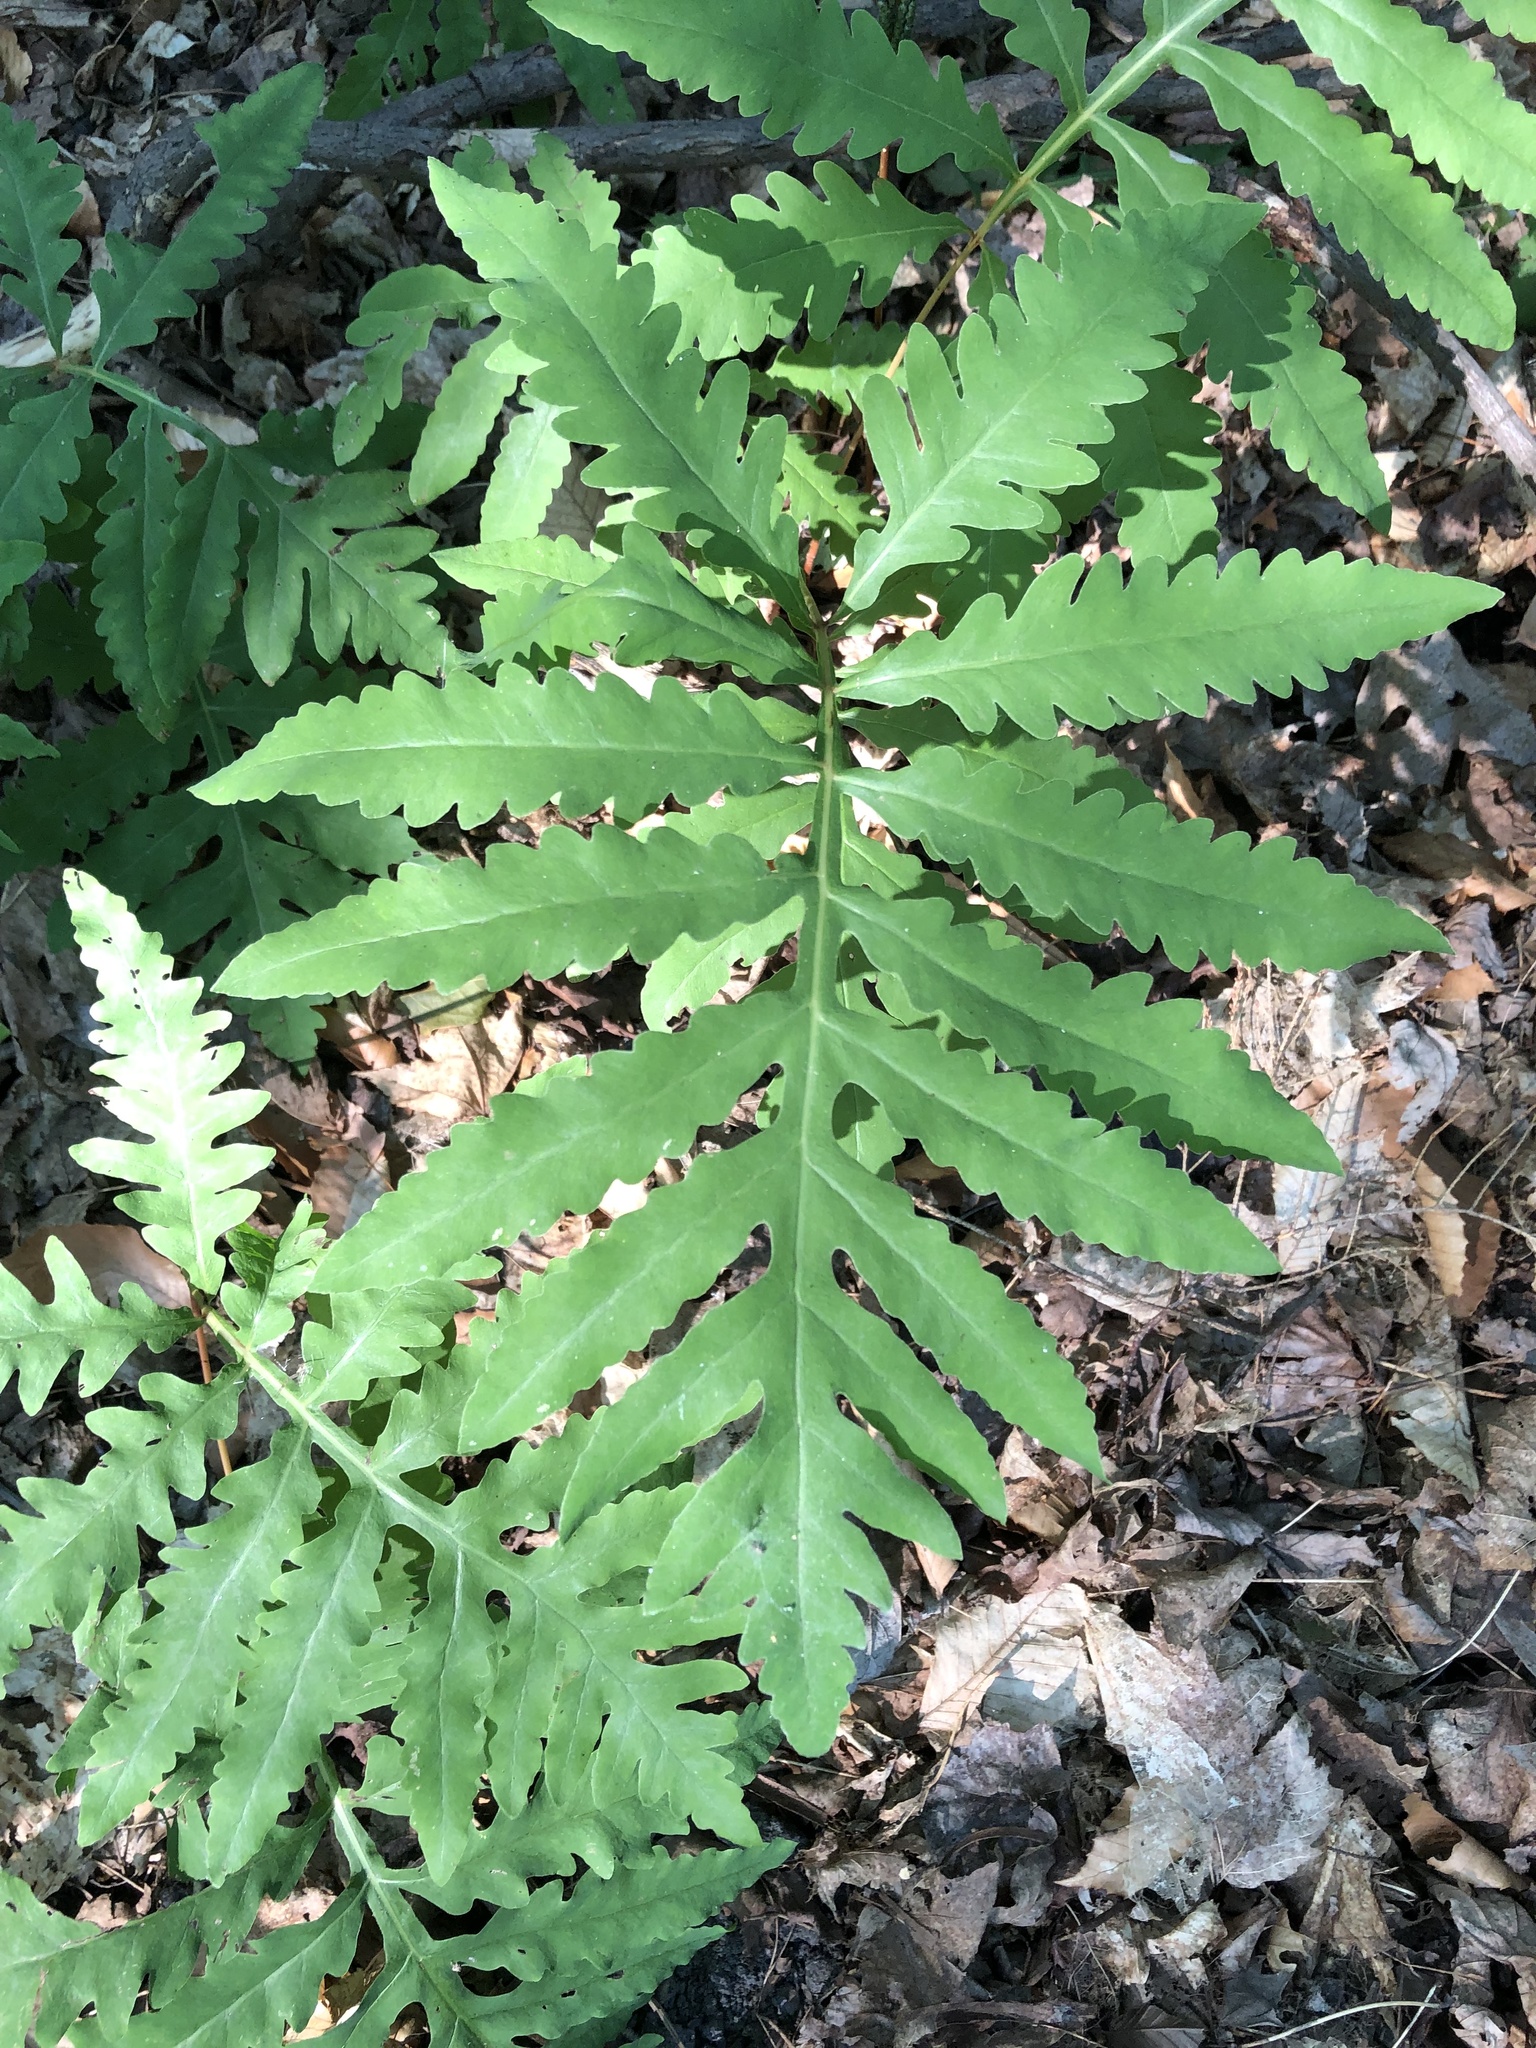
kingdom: Plantae
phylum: Tracheophyta
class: Polypodiopsida
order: Polypodiales
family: Onocleaceae
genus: Onoclea
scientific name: Onoclea sensibilis
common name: Sensitive fern
